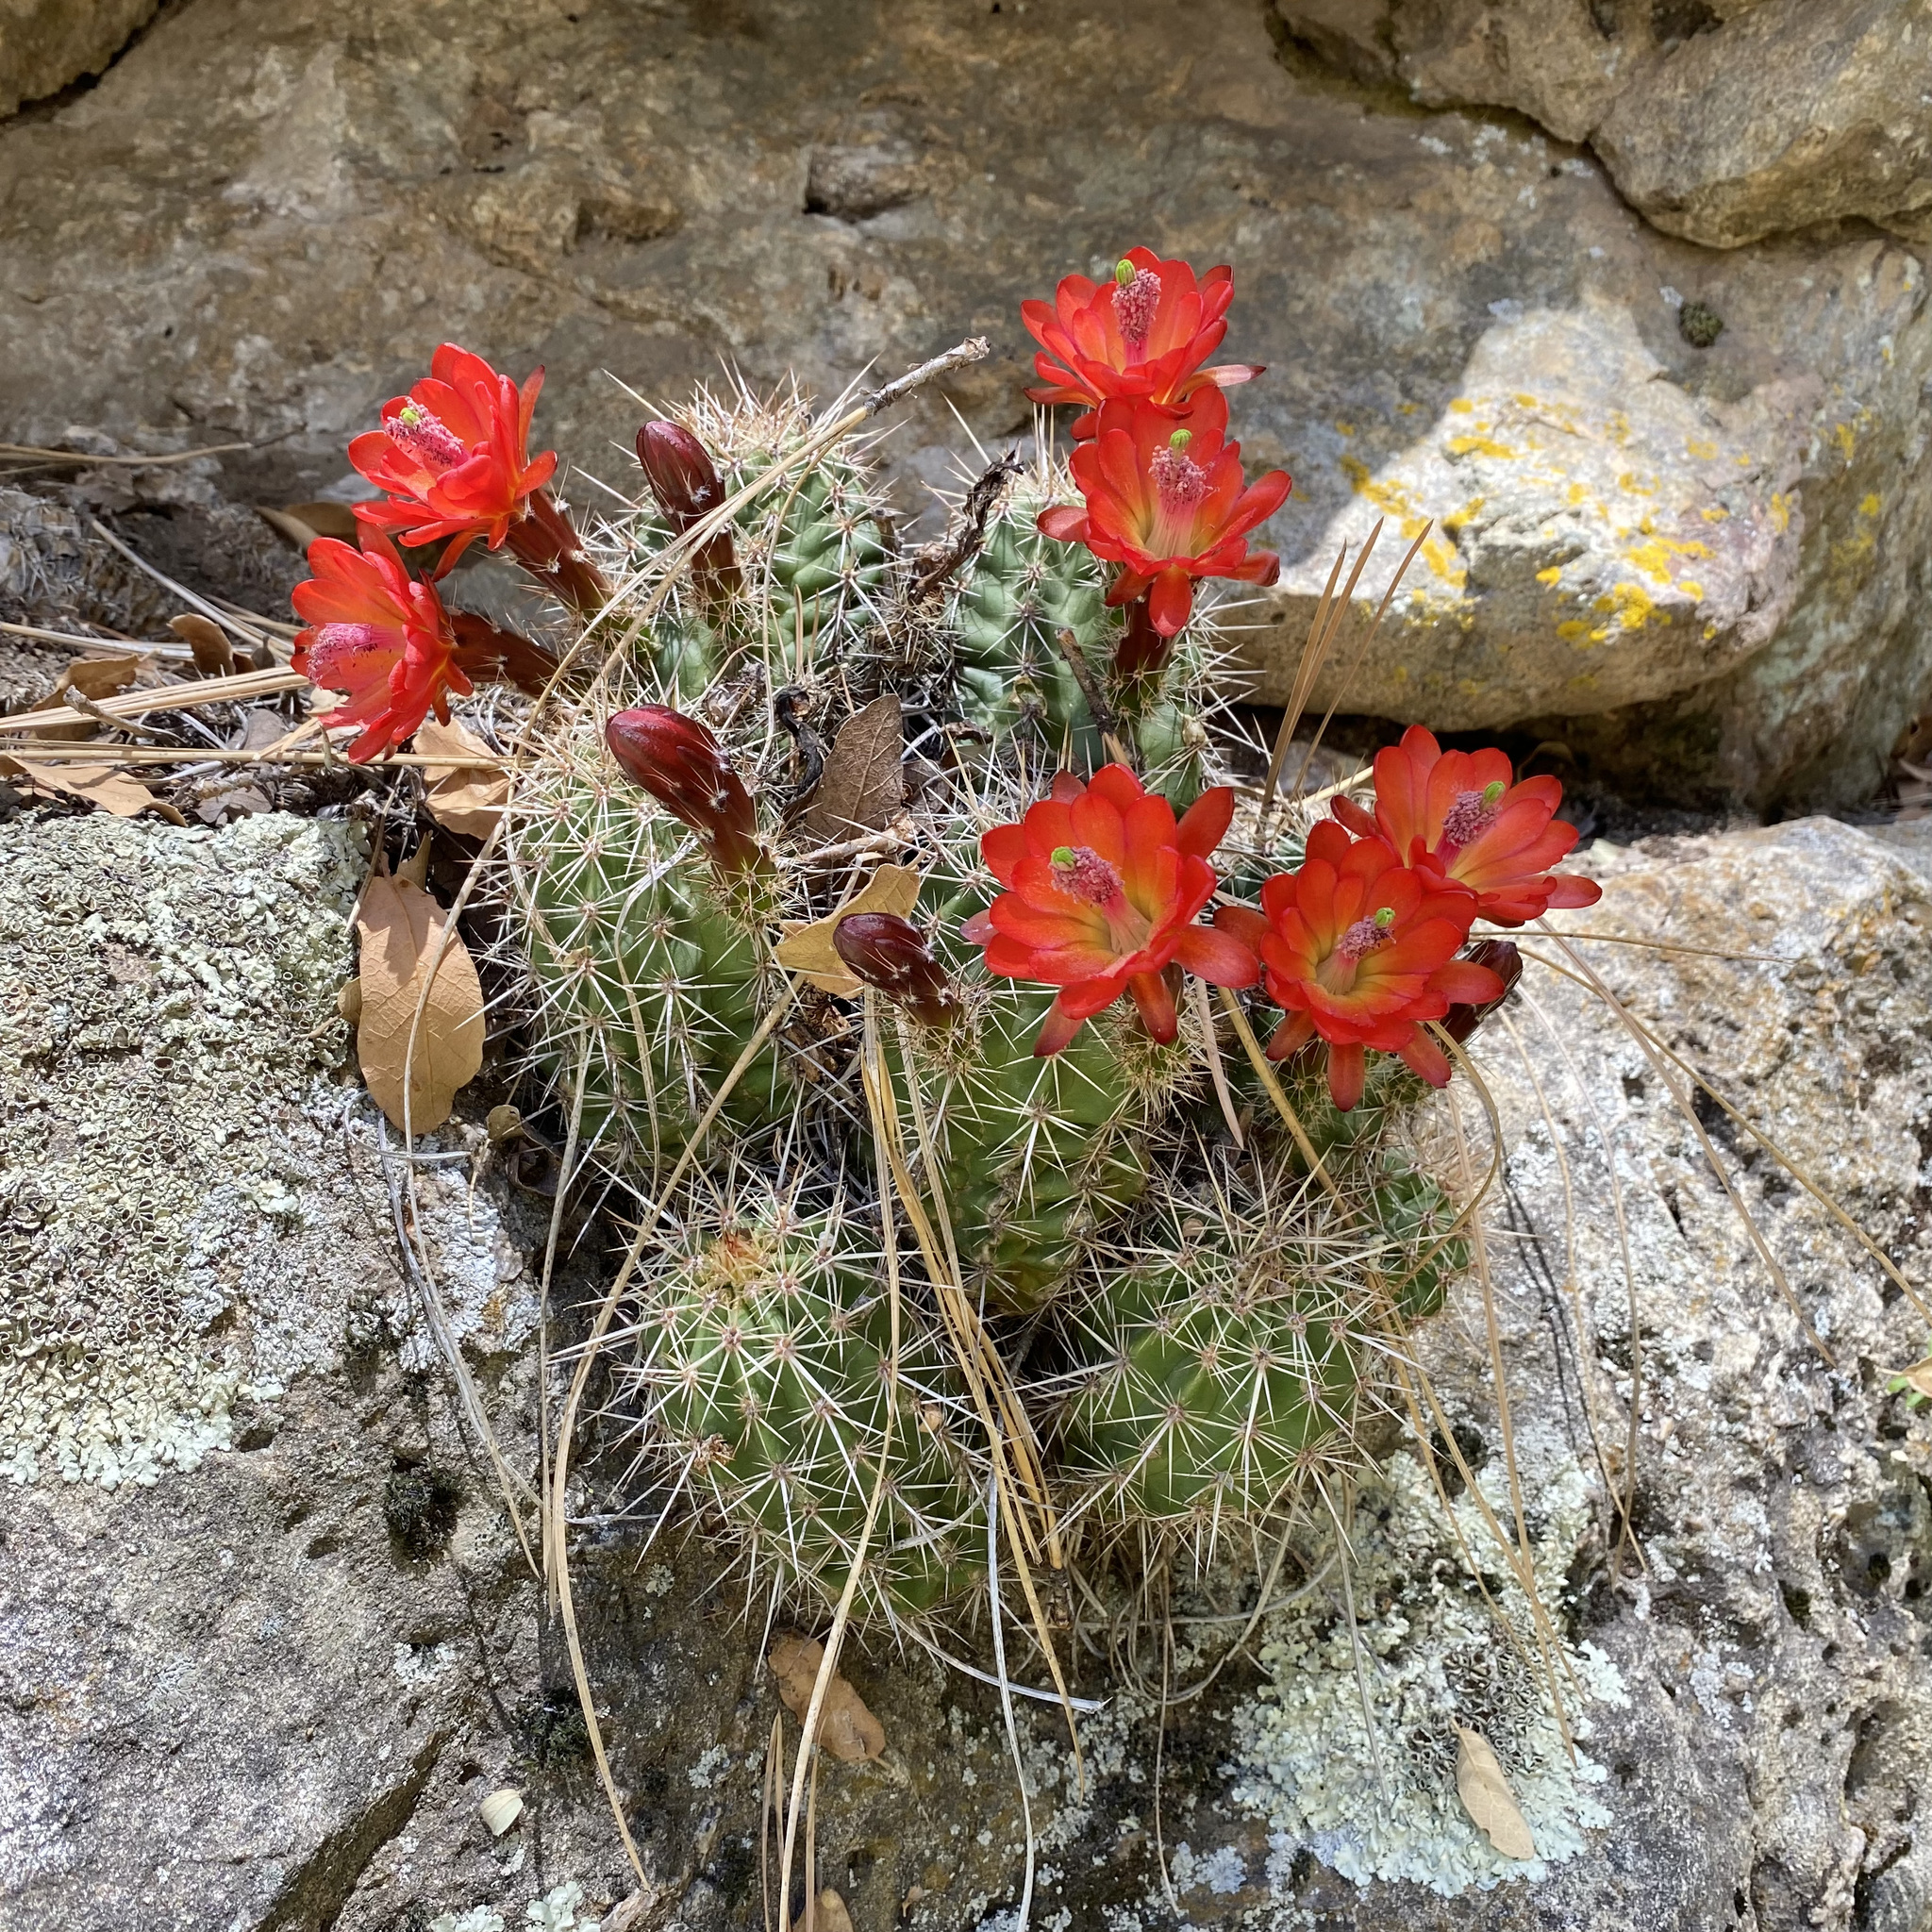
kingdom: Plantae
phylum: Tracheophyta
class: Magnoliopsida
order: Caryophyllales
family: Cactaceae
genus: Echinocereus
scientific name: Echinocereus coccineus
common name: Scarlet hedgehog cactus
